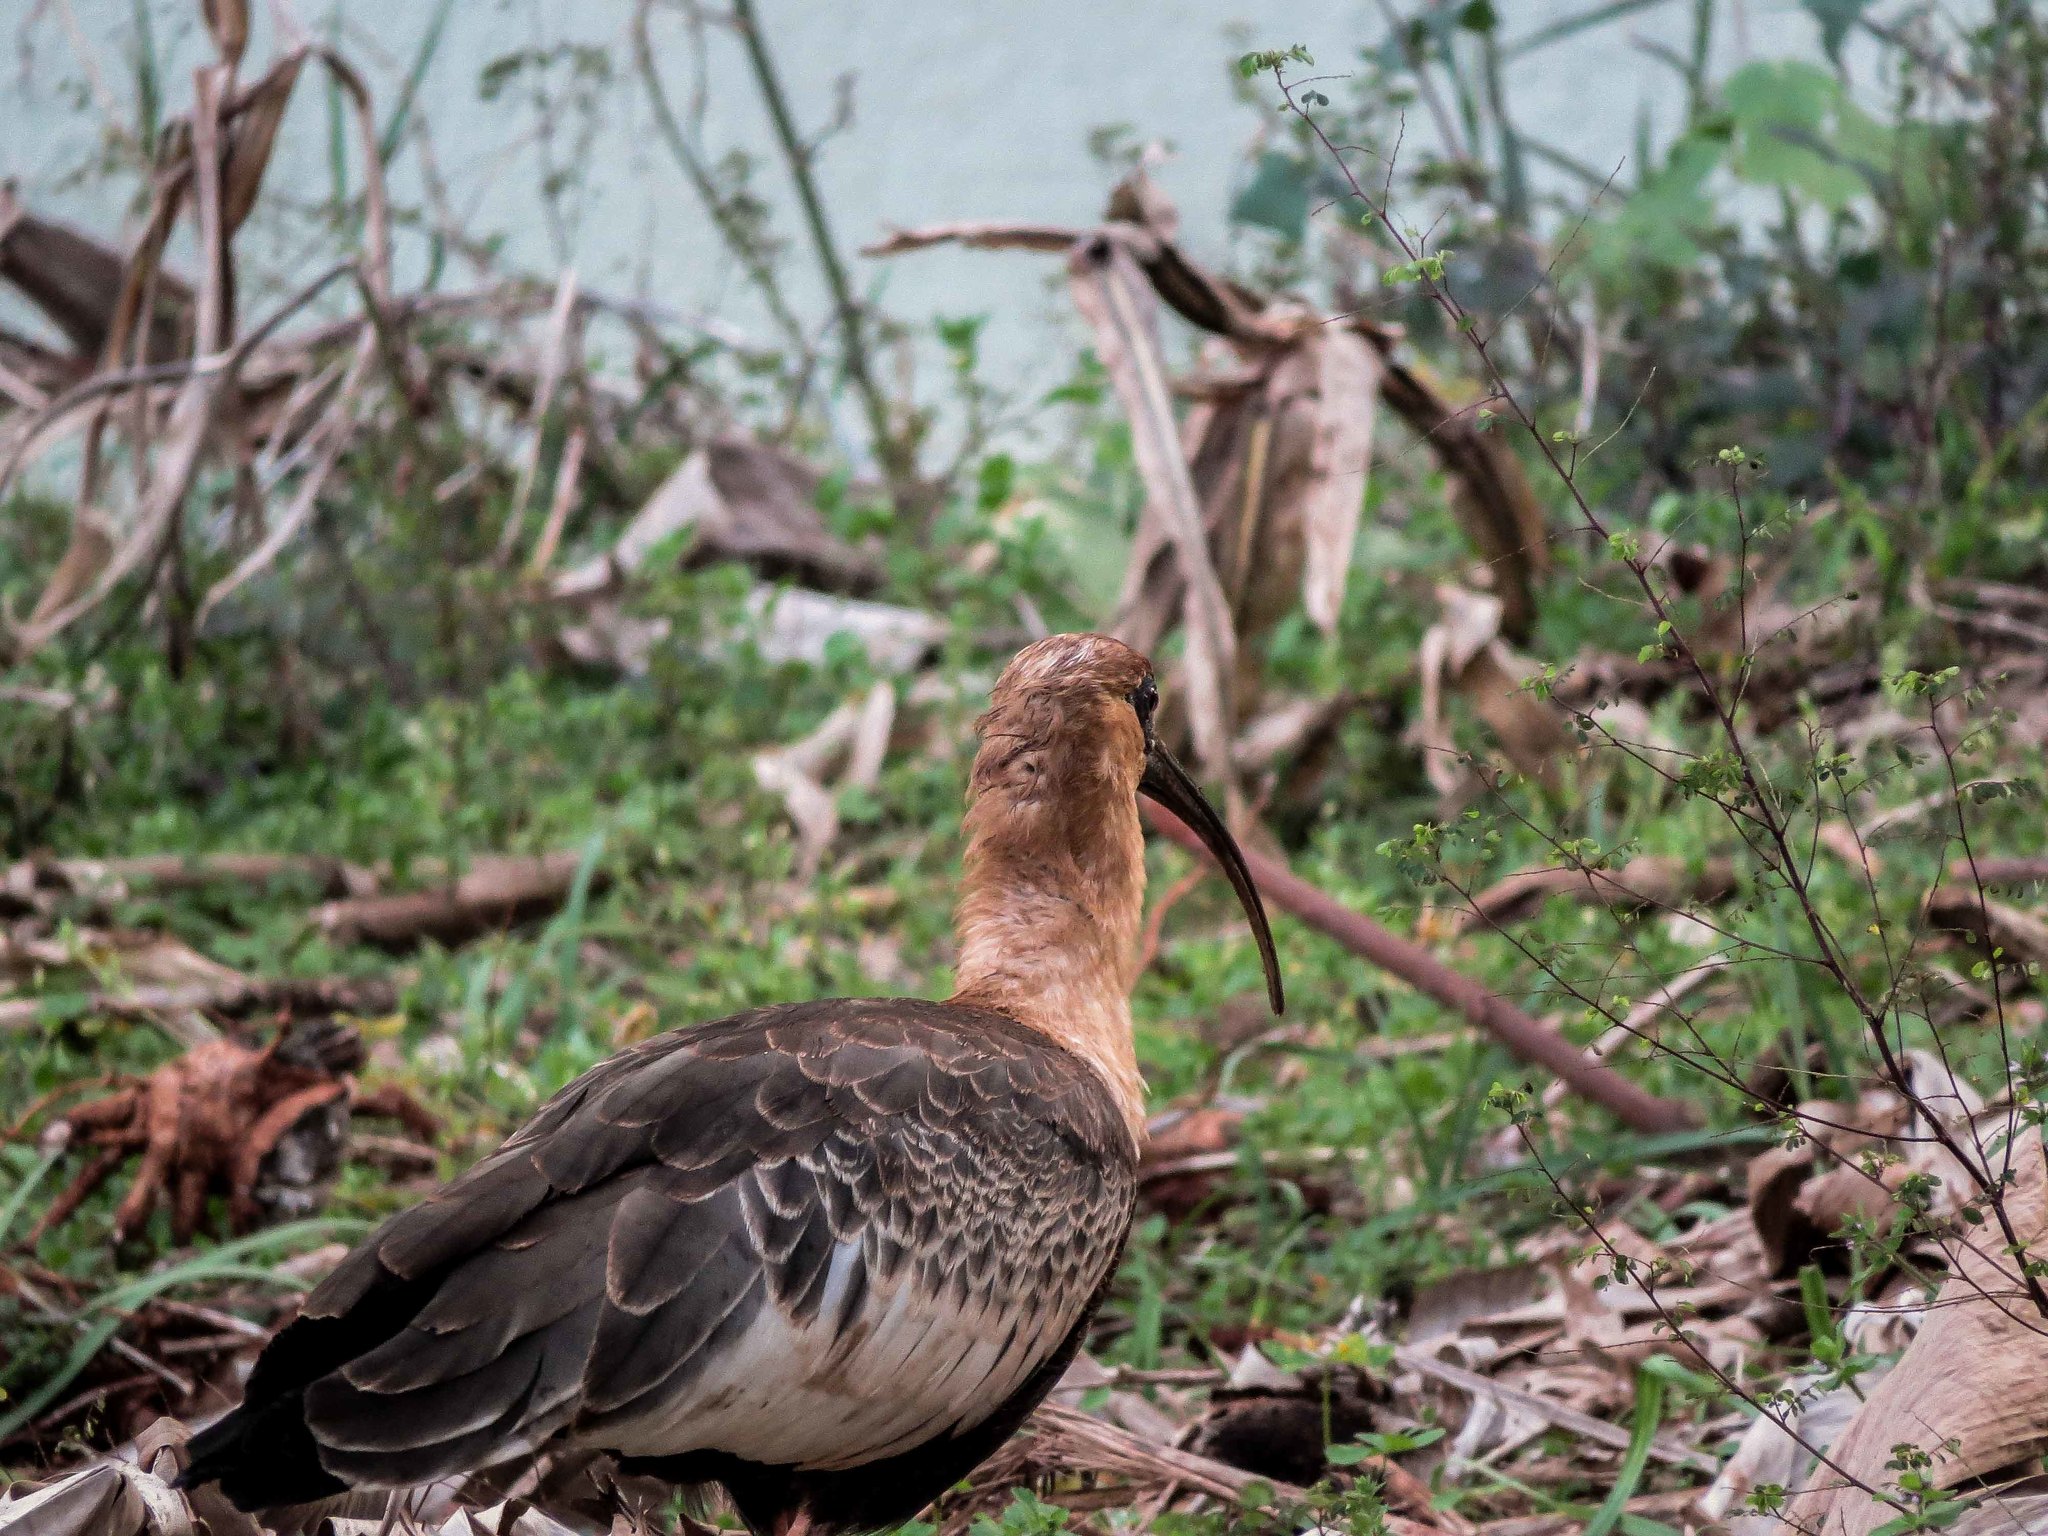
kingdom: Animalia
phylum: Chordata
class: Aves
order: Pelecaniformes
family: Threskiornithidae
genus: Theristicus
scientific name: Theristicus caudatus
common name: Buff-necked ibis
